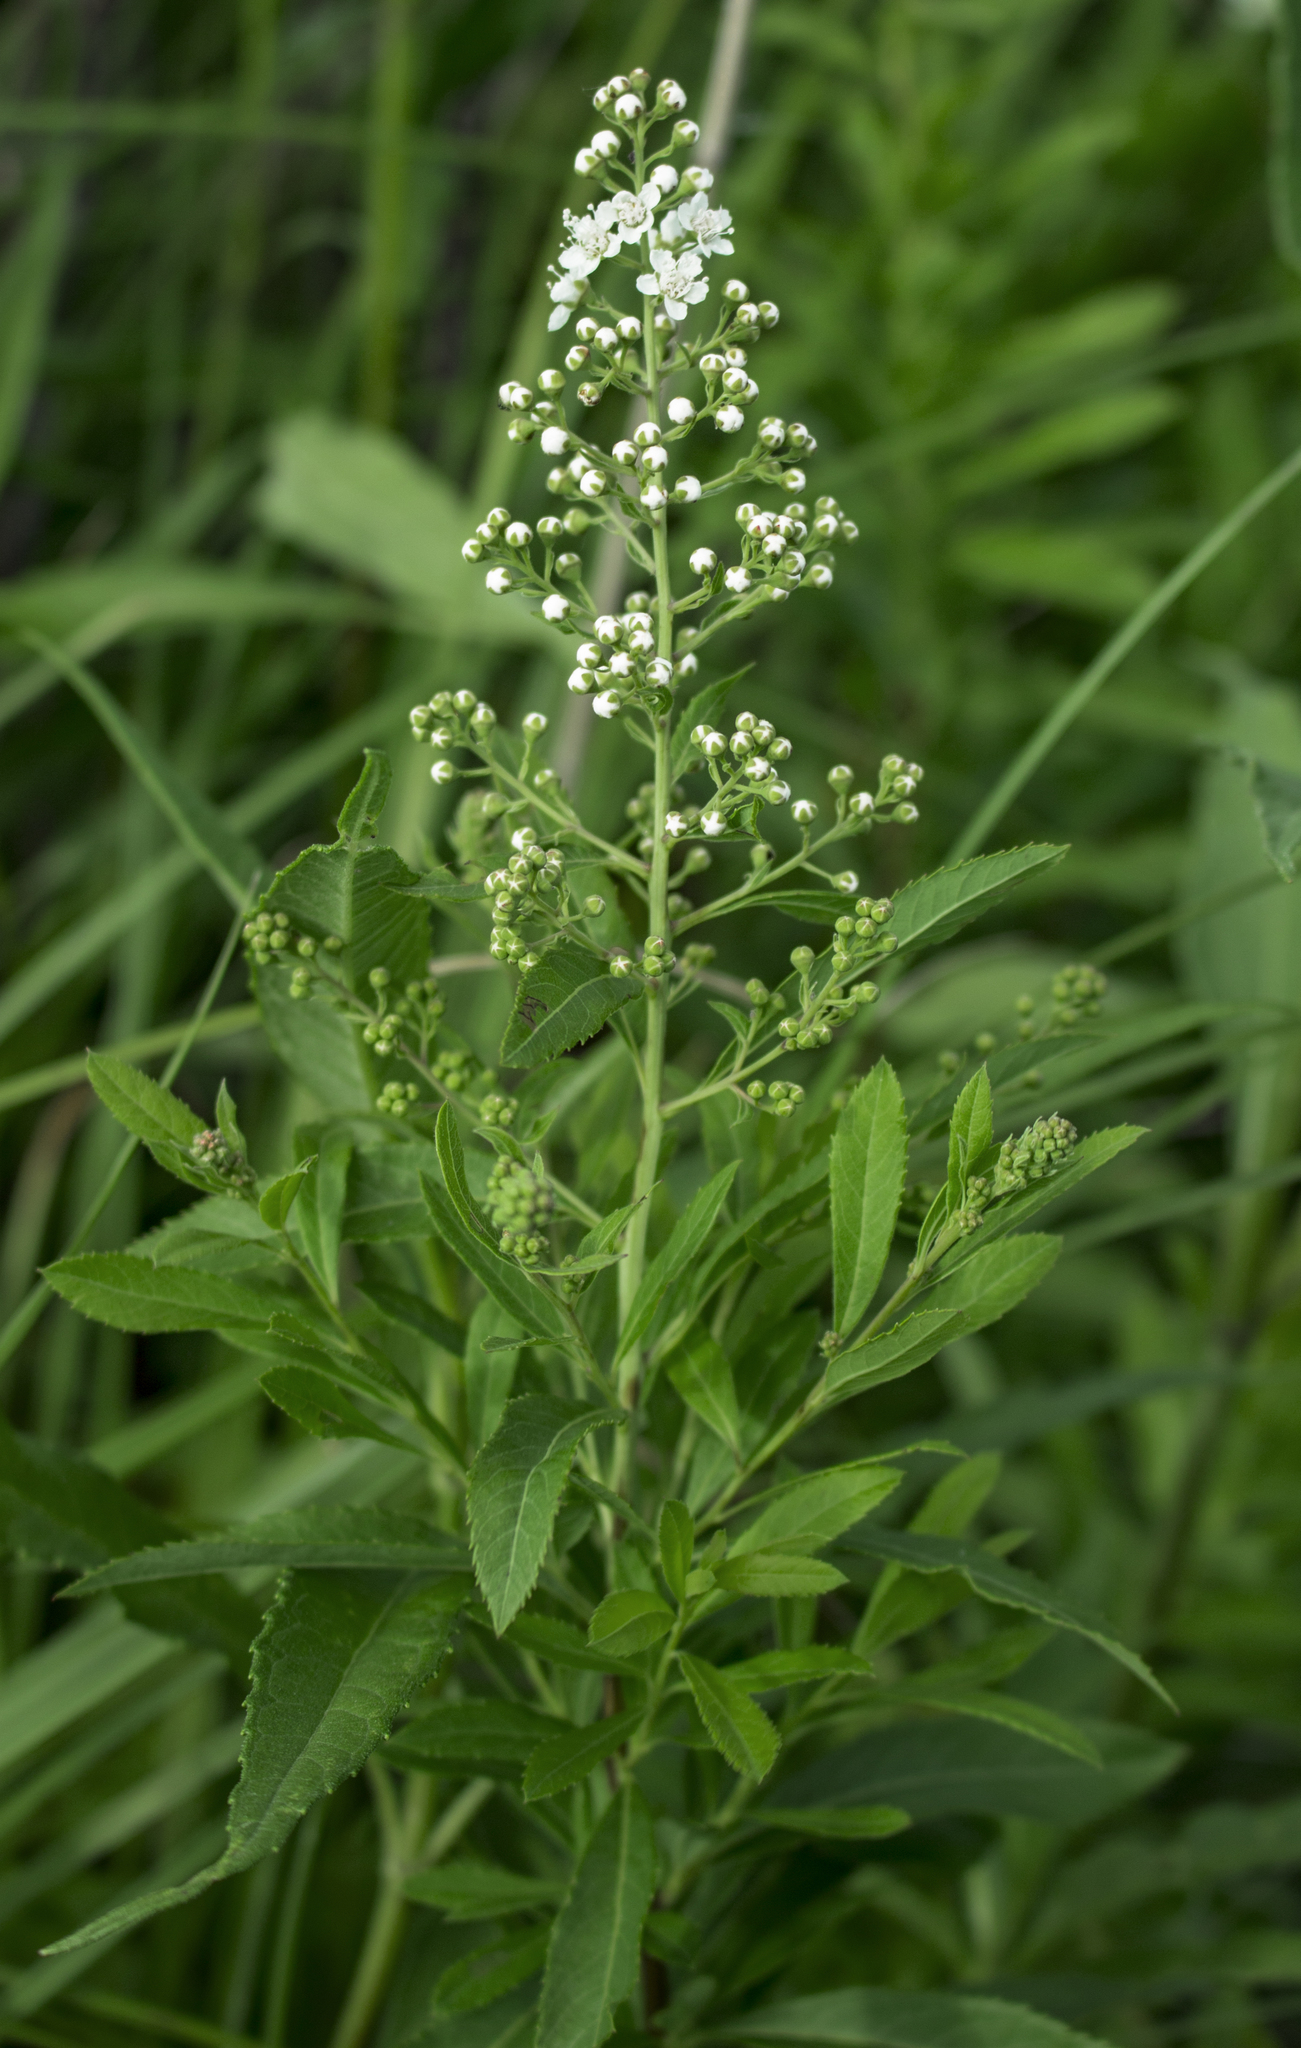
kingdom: Plantae
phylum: Tracheophyta
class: Magnoliopsida
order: Rosales
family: Rosaceae
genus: Spiraea
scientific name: Spiraea alba
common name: Pale bridewort
